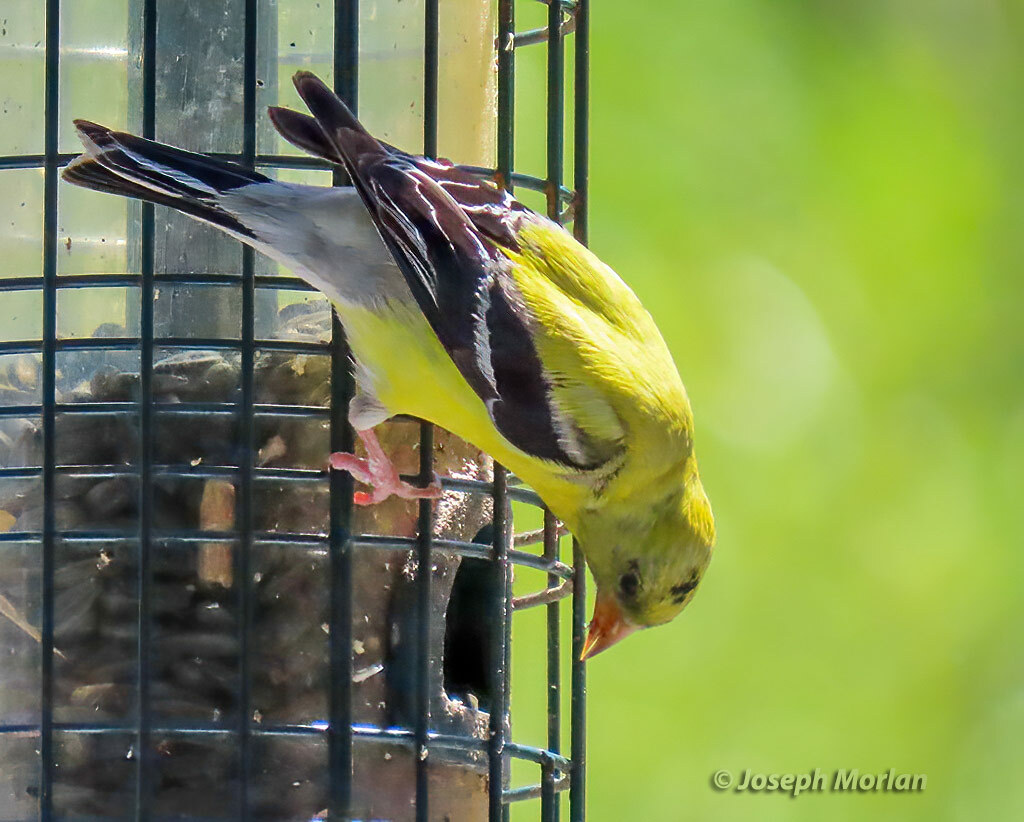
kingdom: Animalia
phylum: Chordata
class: Aves
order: Passeriformes
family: Fringillidae
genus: Spinus
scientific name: Spinus tristis
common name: American goldfinch
